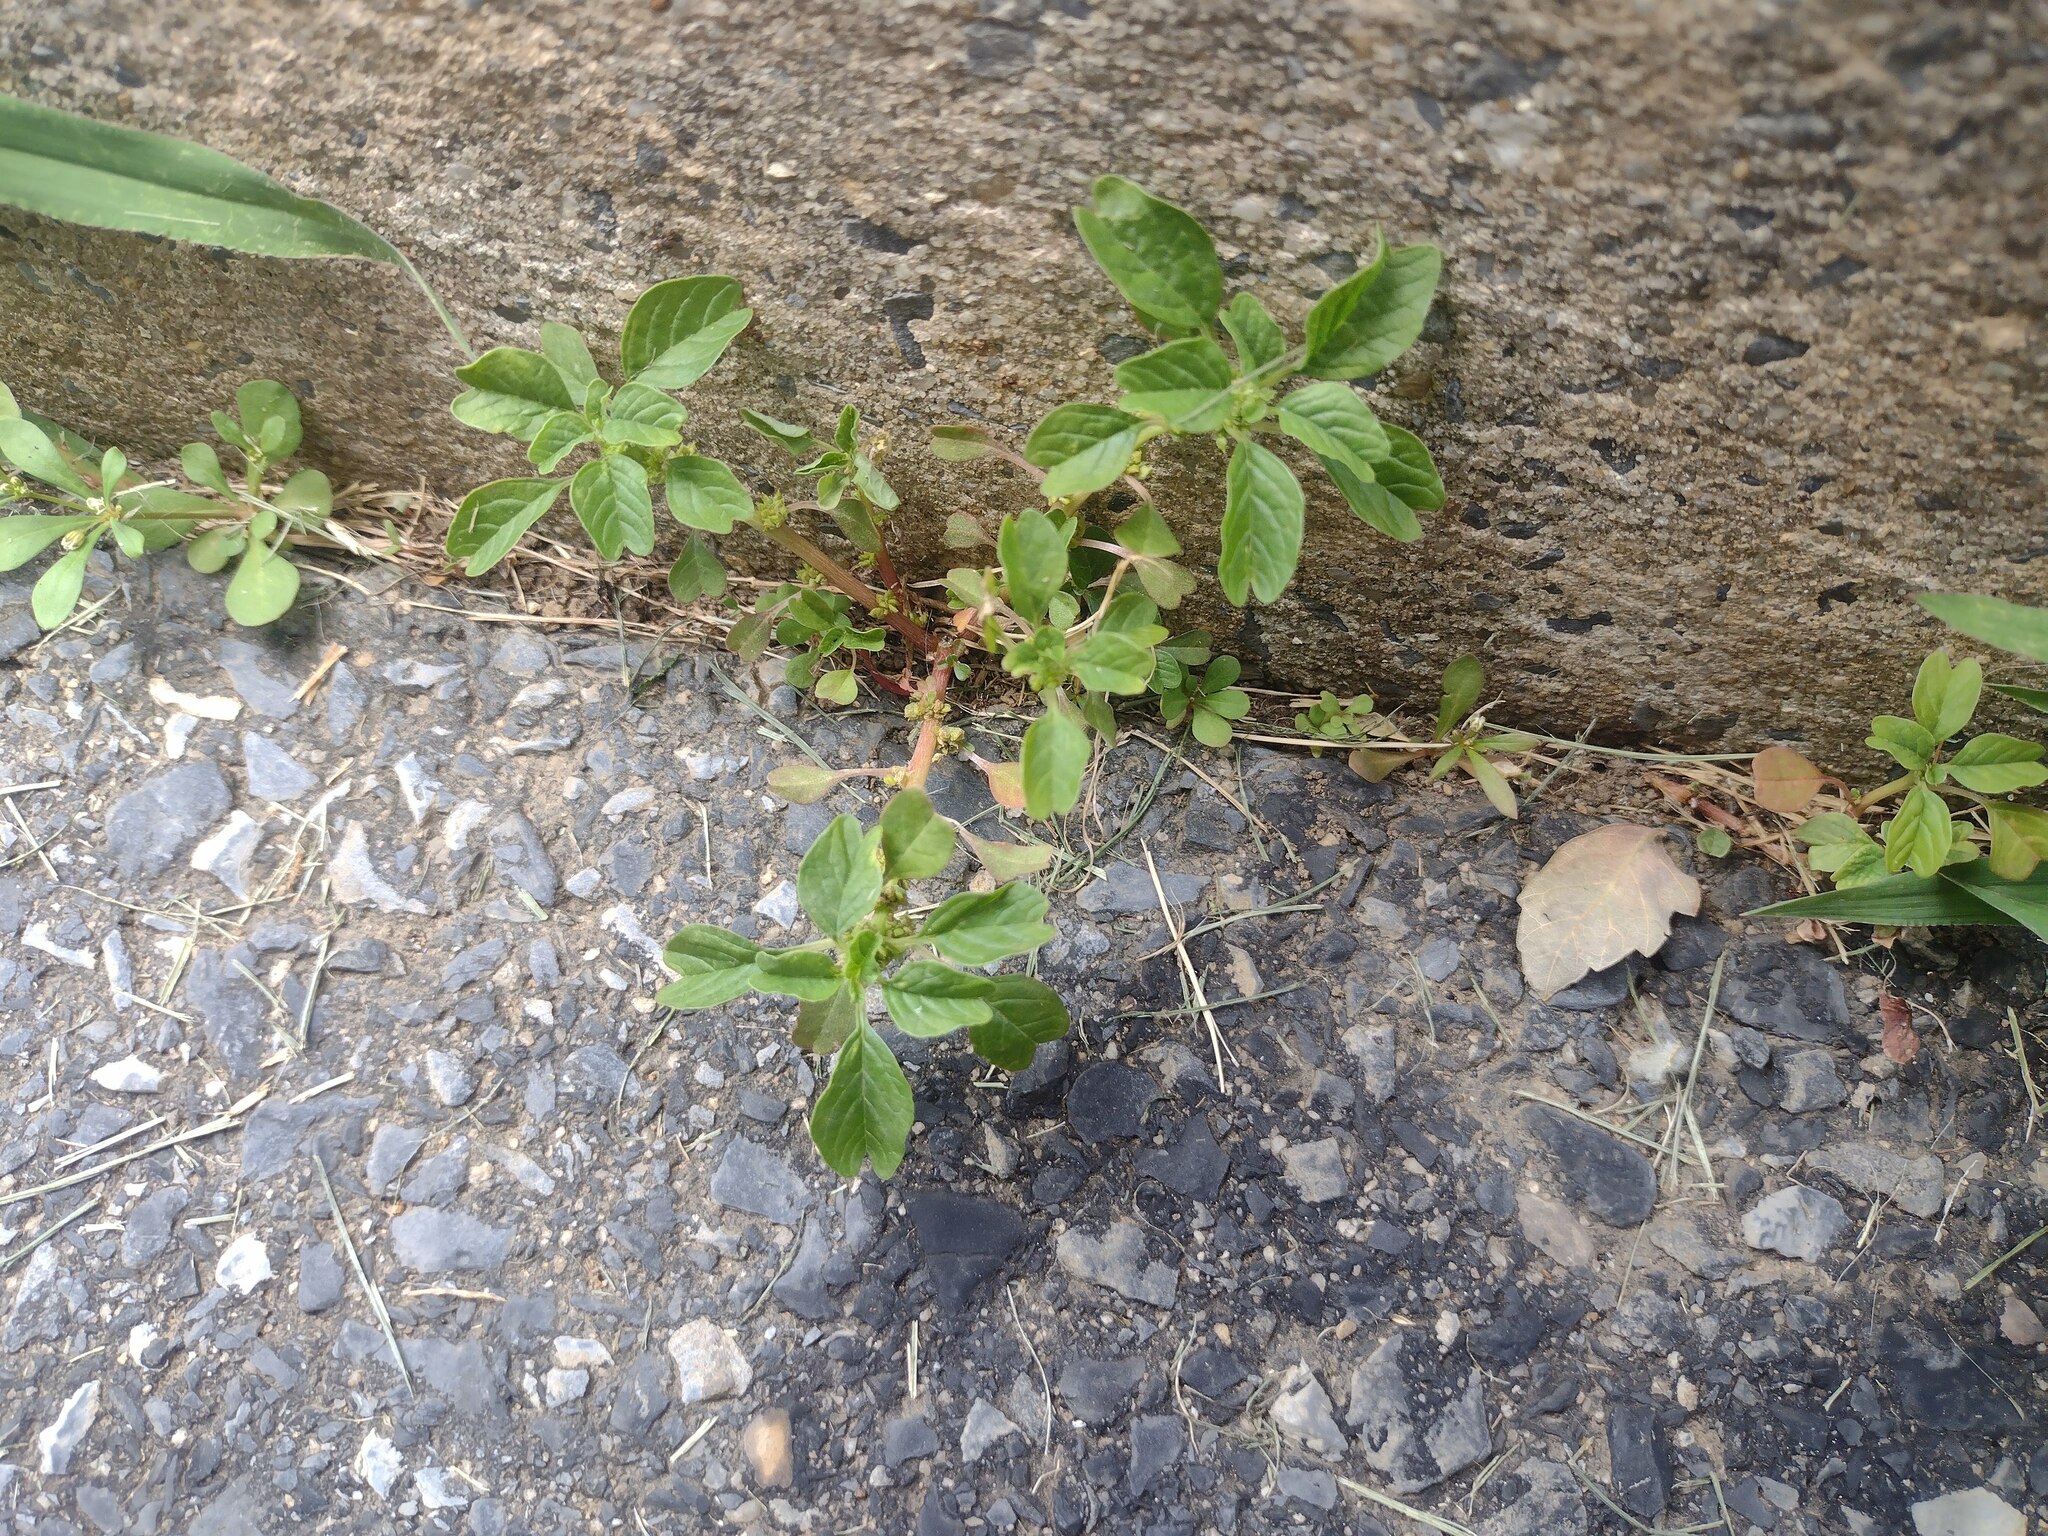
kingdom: Plantae
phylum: Tracheophyta
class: Magnoliopsida
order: Caryophyllales
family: Amaranthaceae
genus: Amaranthus
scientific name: Amaranthus blitum
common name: Purple amaranth
